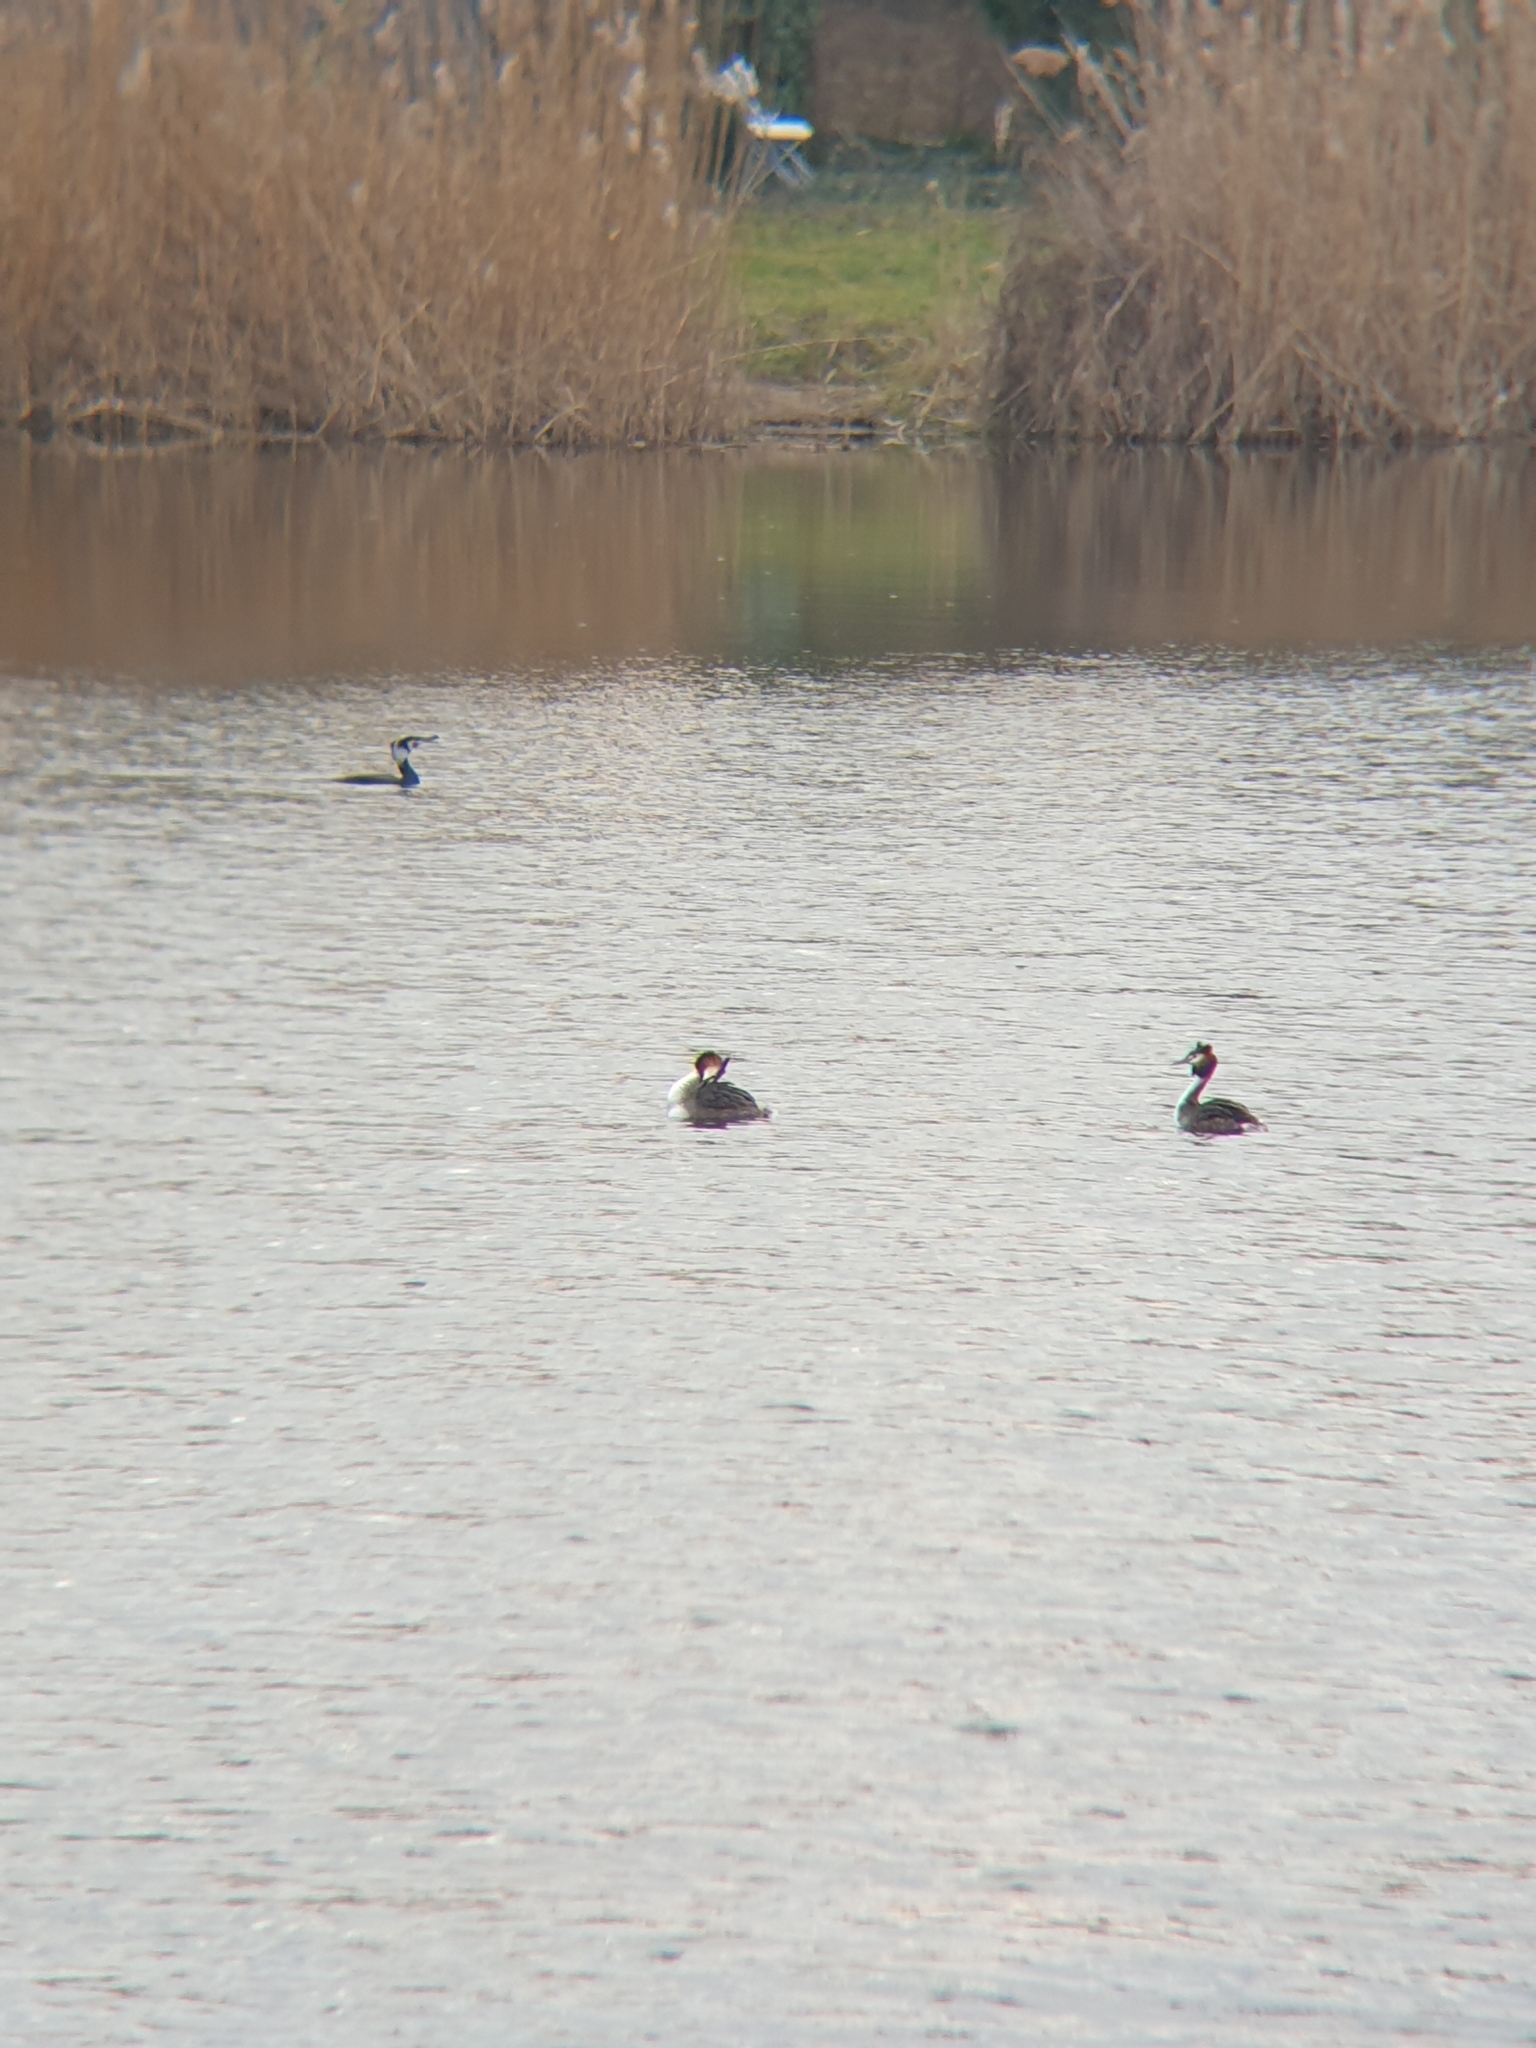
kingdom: Animalia
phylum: Chordata
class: Aves
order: Podicipediformes
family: Podicipedidae
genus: Podiceps
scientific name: Podiceps cristatus
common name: Great crested grebe
